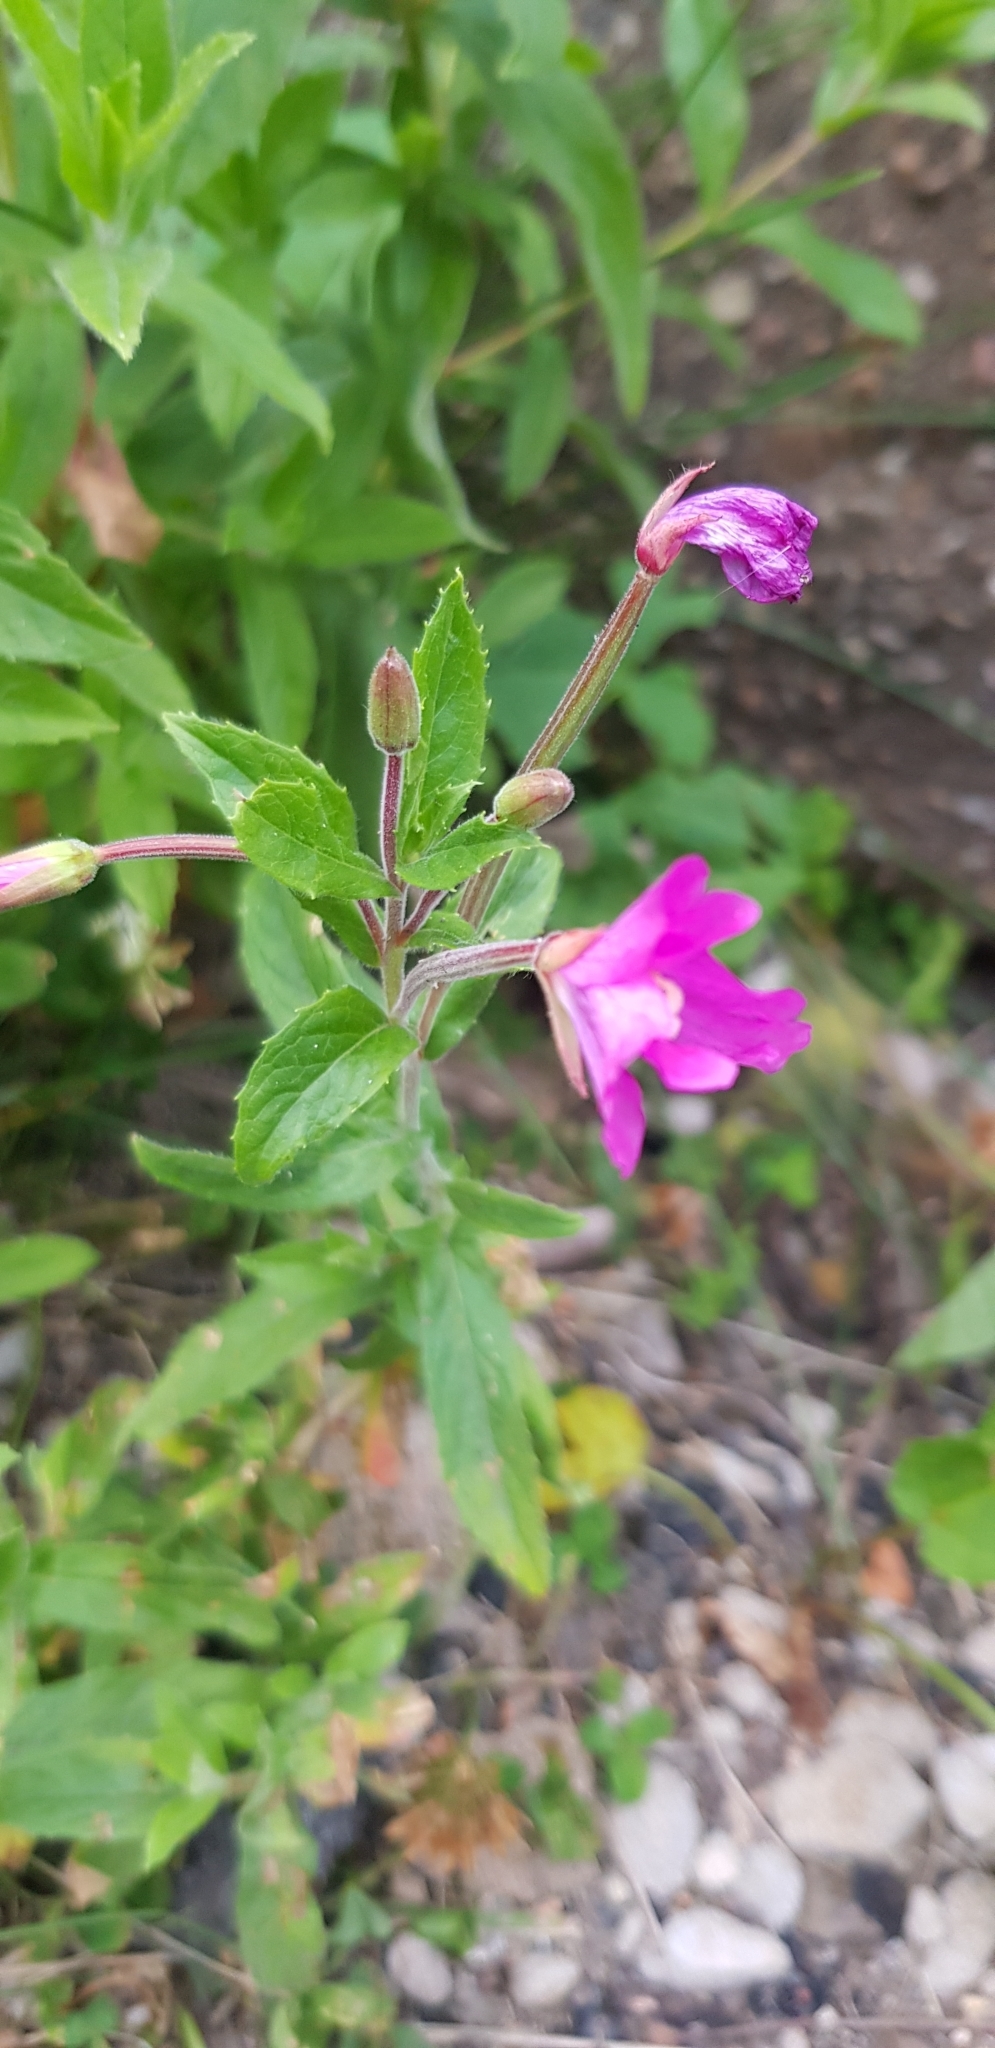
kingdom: Plantae
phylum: Tracheophyta
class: Magnoliopsida
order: Myrtales
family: Onagraceae
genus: Epilobium
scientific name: Epilobium hirsutum
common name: Great willowherb
